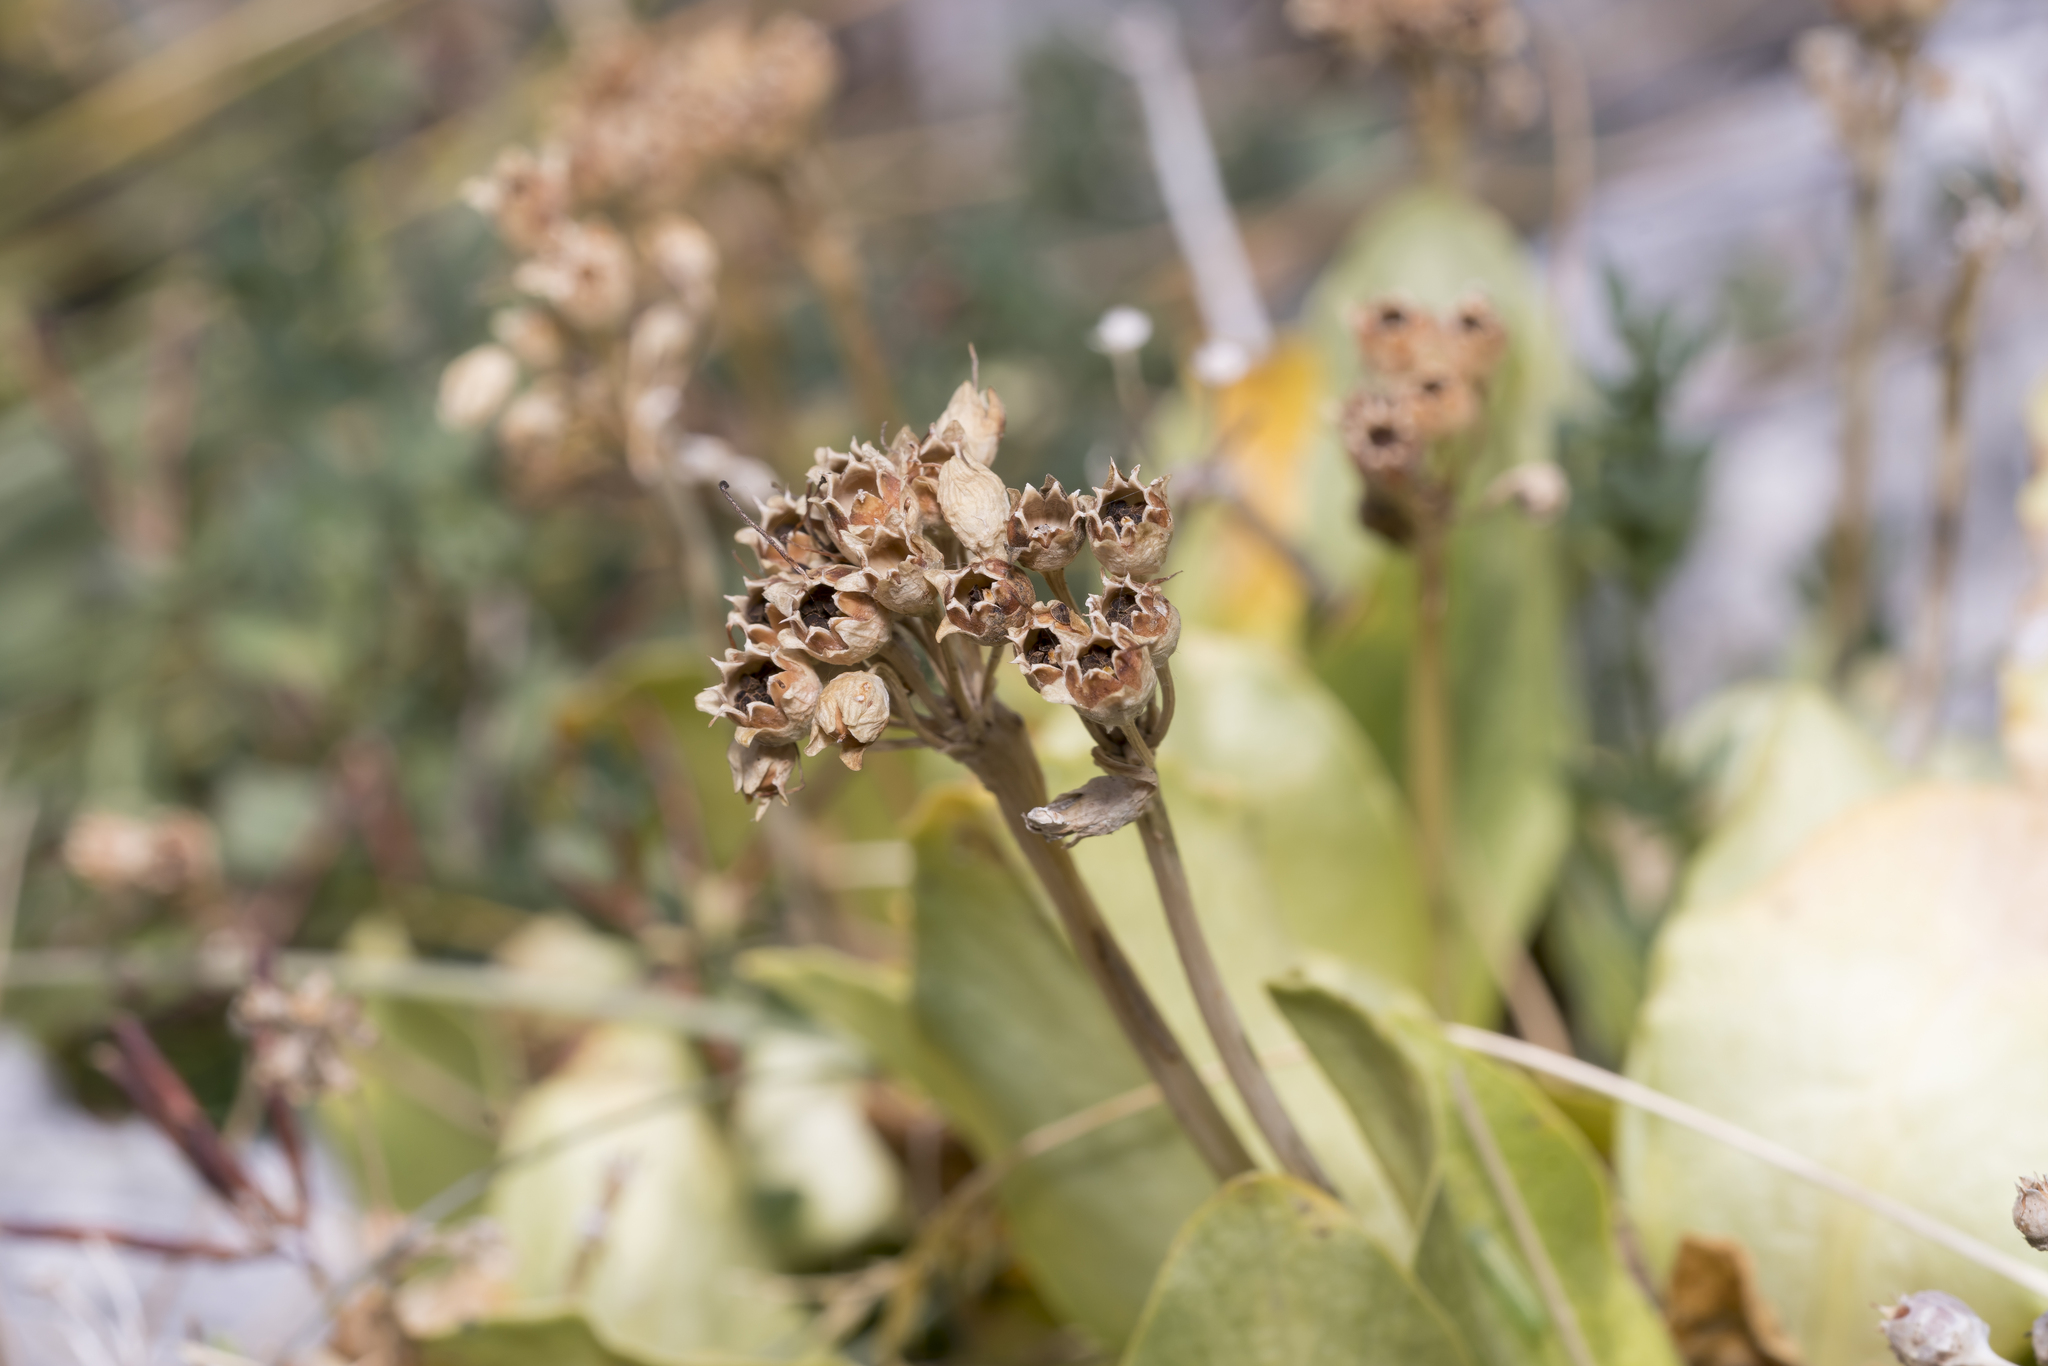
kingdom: Plantae
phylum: Tracheophyta
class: Magnoliopsida
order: Ericales
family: Primulaceae
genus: Primula
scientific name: Primula auricula
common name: Auricula
